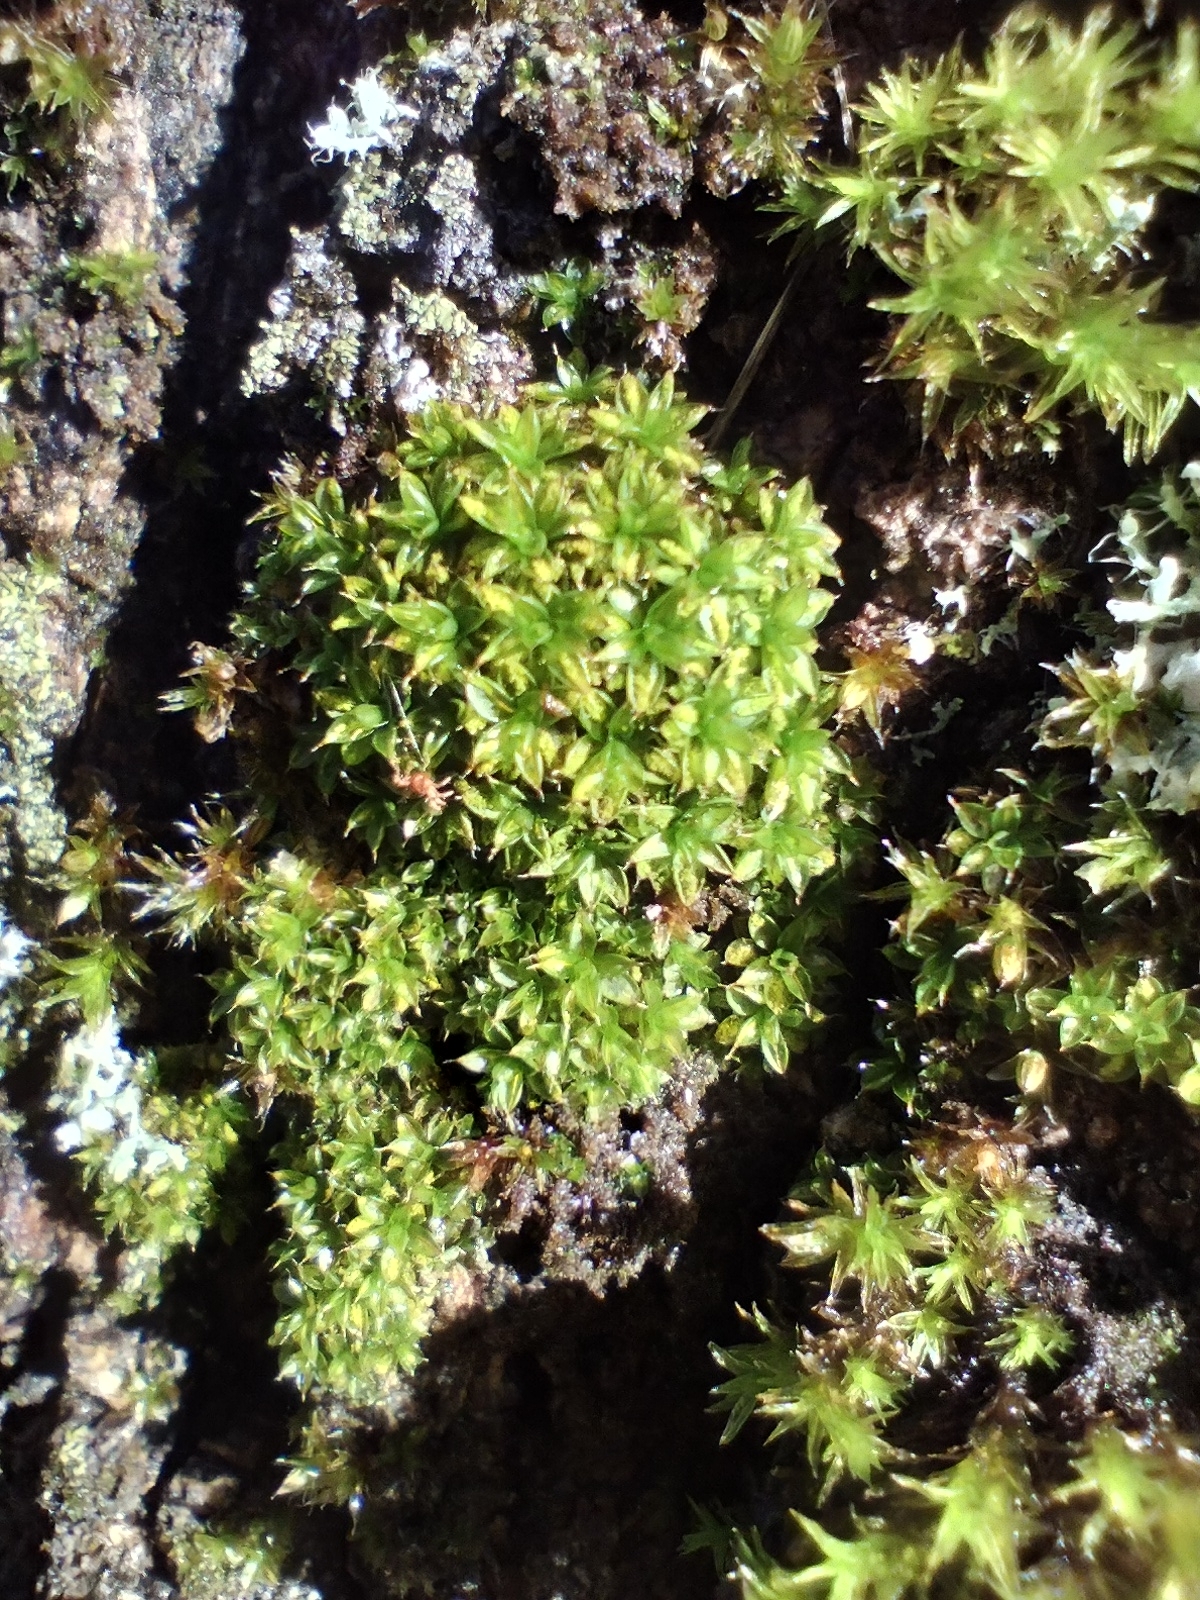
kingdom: Plantae
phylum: Bryophyta
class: Bryopsida
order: Pottiales
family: Pottiaceae
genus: Syntrichia
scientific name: Syntrichia papillosa
